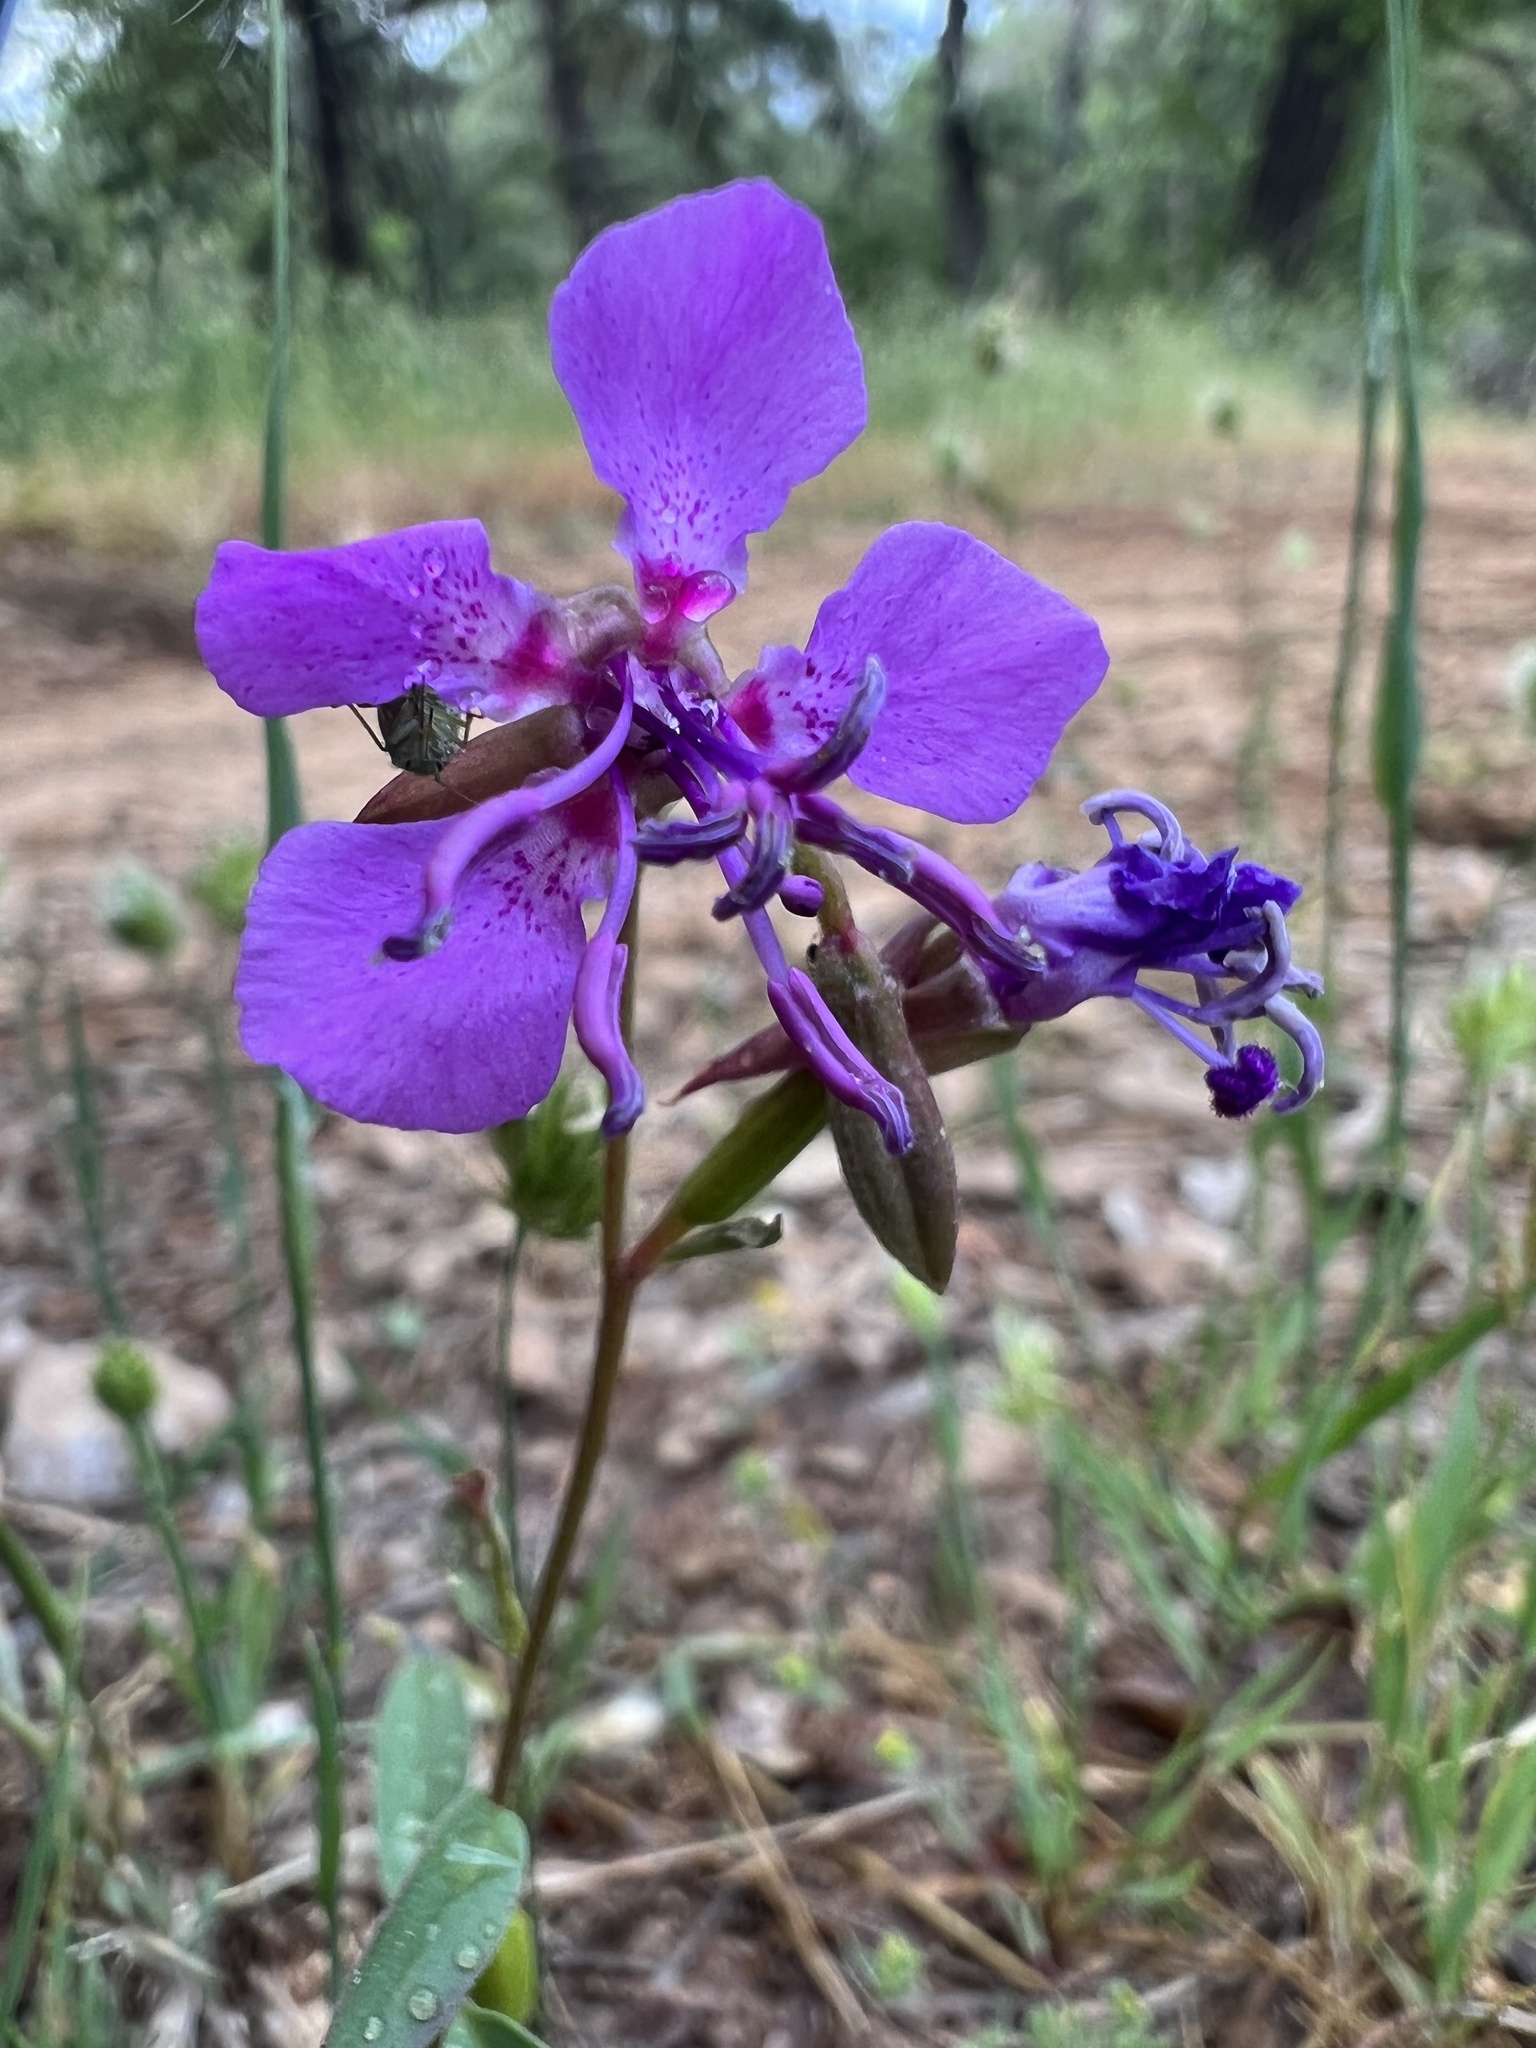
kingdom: Plantae
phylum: Tracheophyta
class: Magnoliopsida
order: Myrtales
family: Onagraceae
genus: Clarkia
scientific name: Clarkia rhomboidea
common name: Broadleaf clarkia
